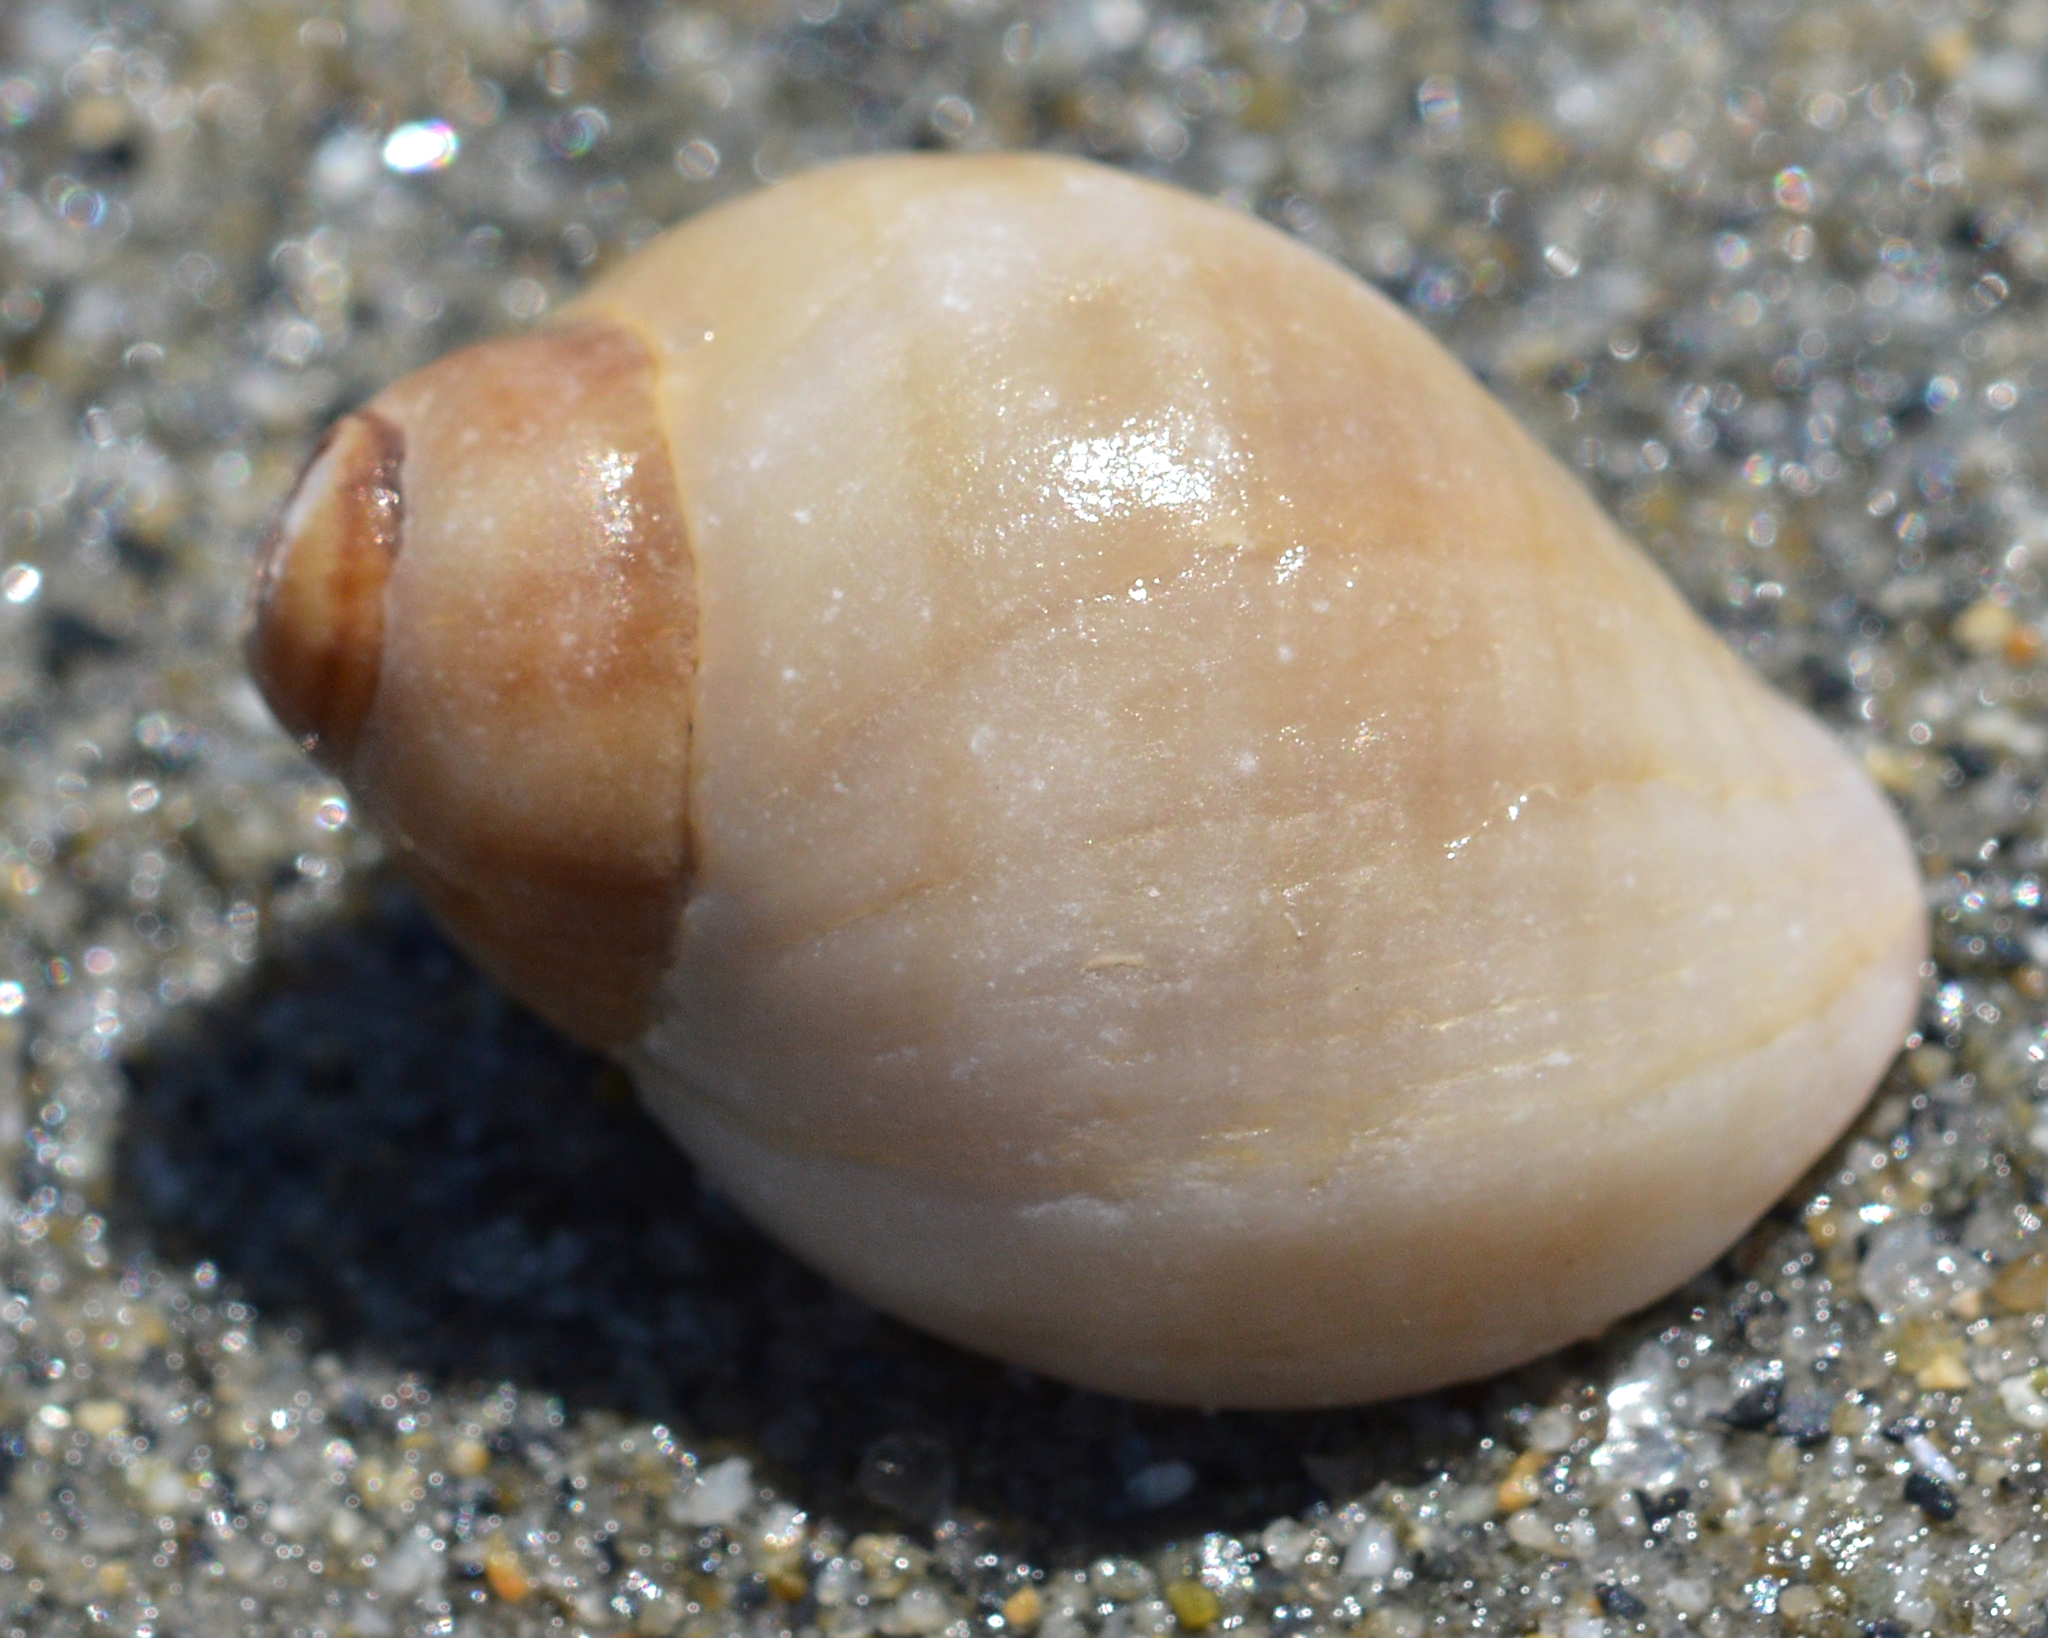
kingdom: Animalia
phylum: Mollusca
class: Gastropoda
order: Neogastropoda
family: Muricidae
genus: Nucella
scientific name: Nucella lapillus
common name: Dog whelk
